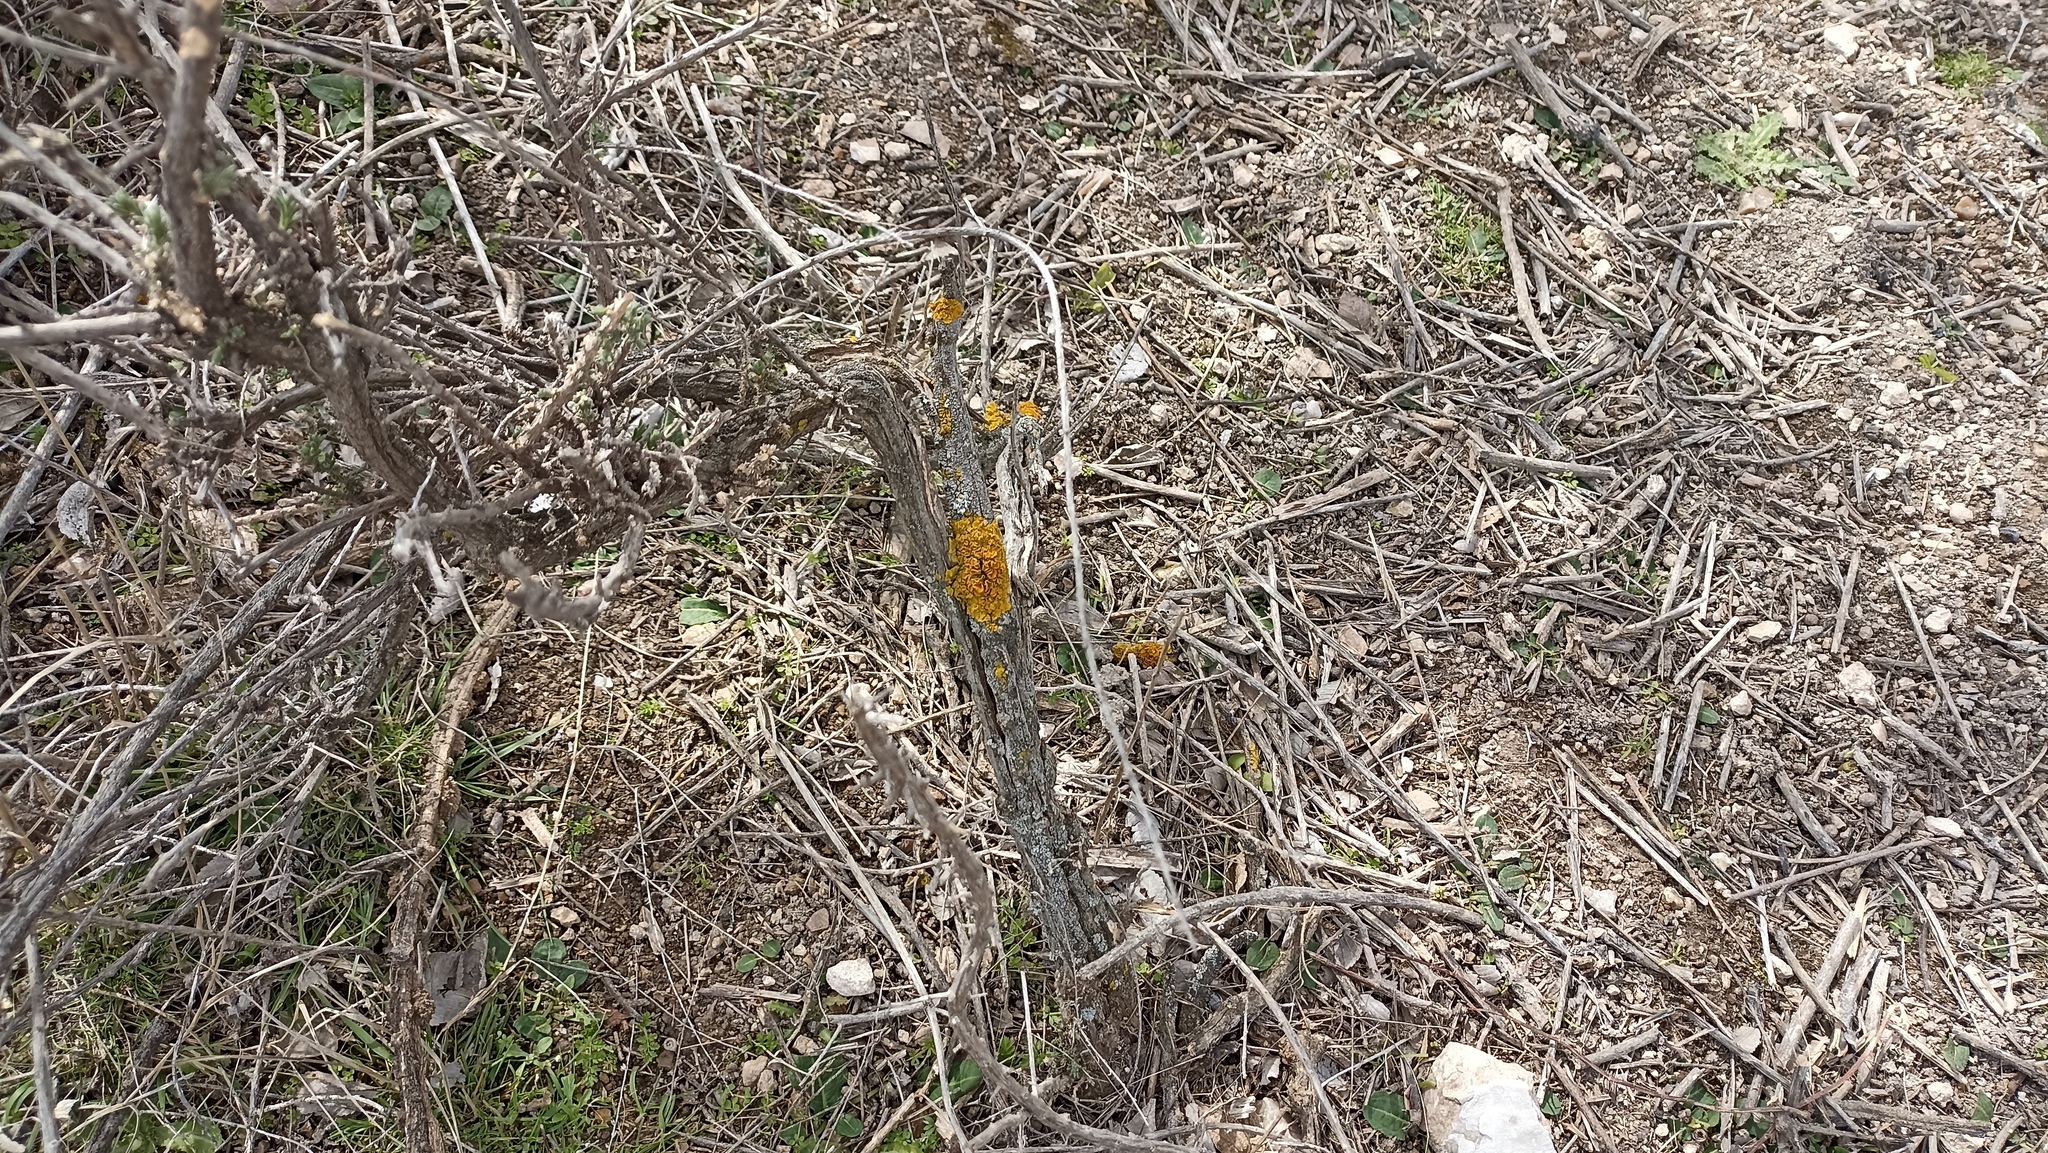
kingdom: Fungi
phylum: Ascomycota
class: Lecanoromycetes
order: Teloschistales
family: Teloschistaceae
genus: Xanthoria
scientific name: Xanthoria parietina
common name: Common orange lichen
